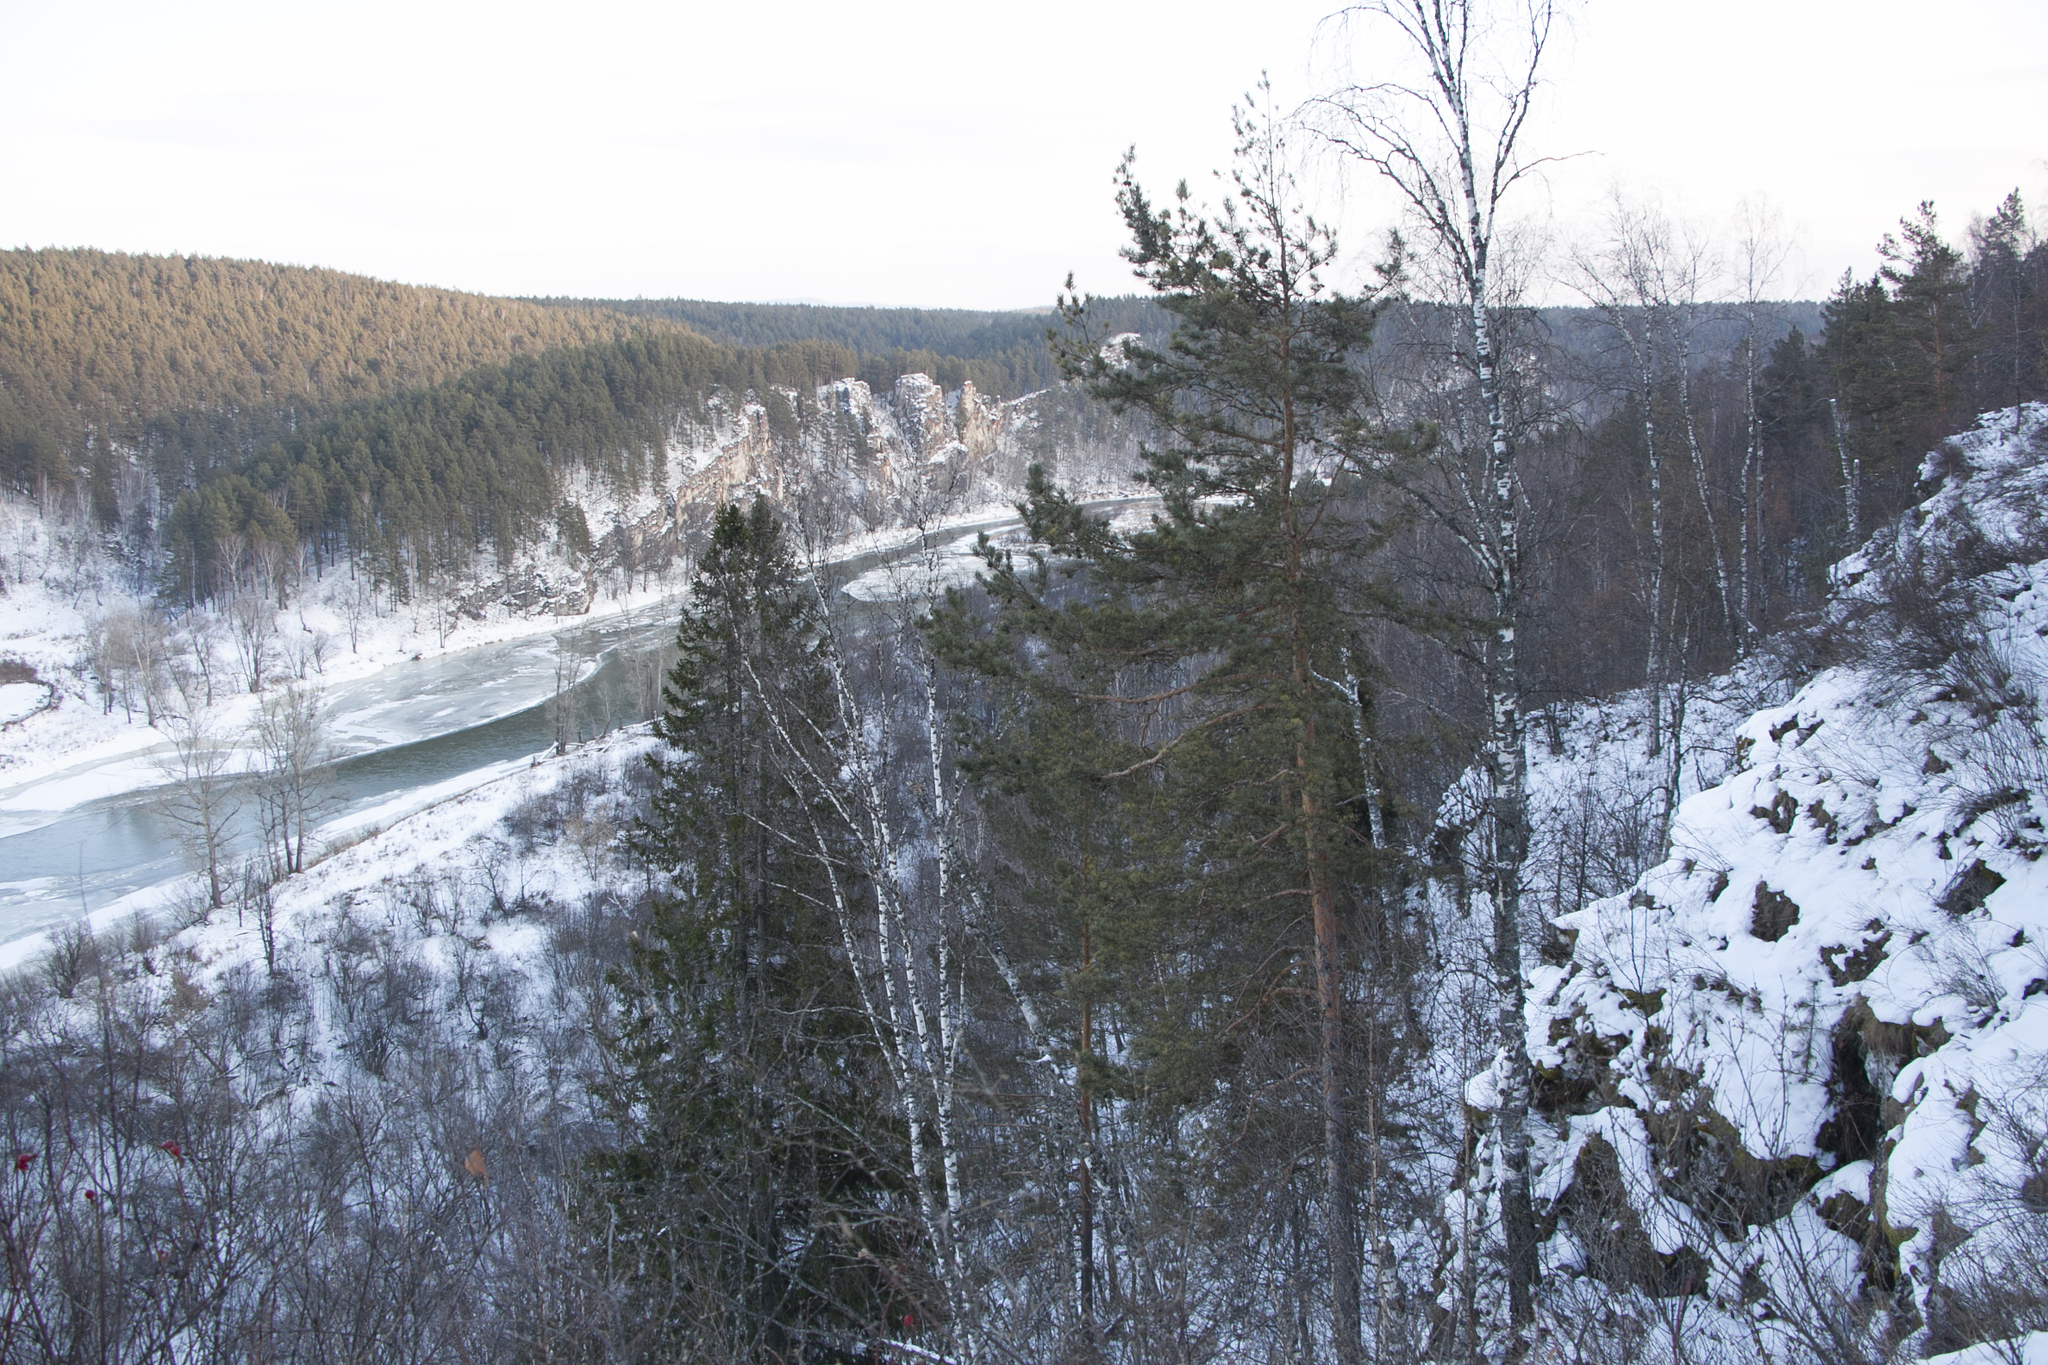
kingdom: Plantae
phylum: Tracheophyta
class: Pinopsida
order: Pinales
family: Pinaceae
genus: Pinus
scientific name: Pinus sylvestris
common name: Scots pine
